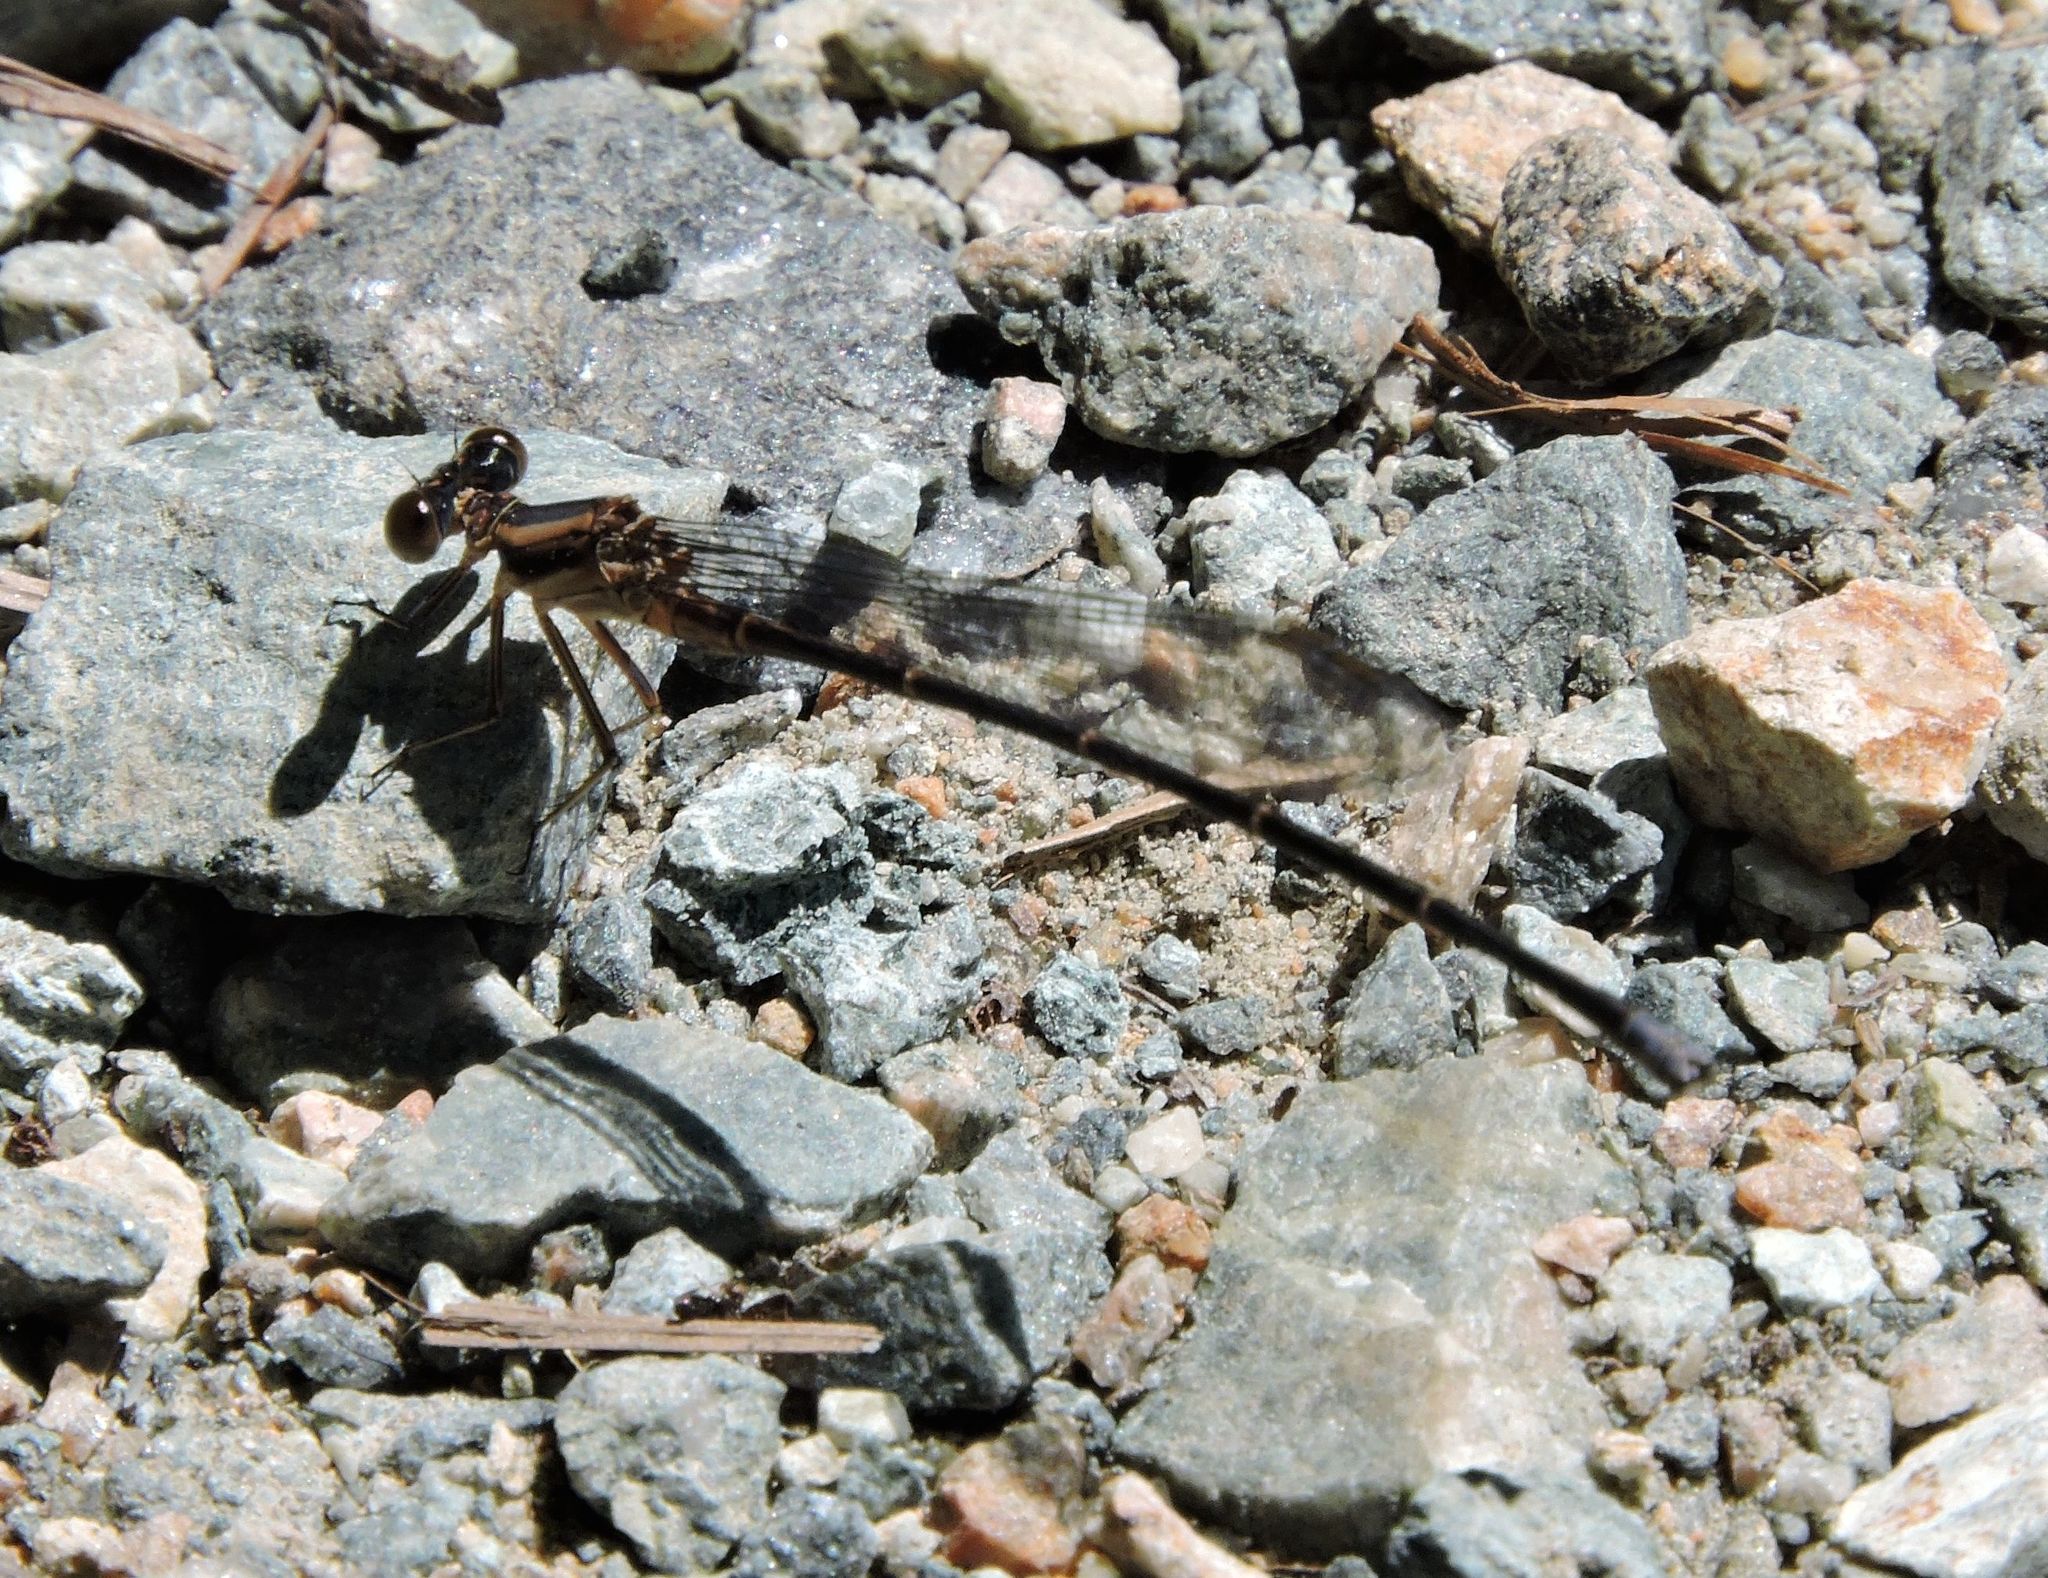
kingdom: Animalia
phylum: Arthropoda
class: Insecta
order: Odonata
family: Coenagrionidae
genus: Argia
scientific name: Argia tibialis
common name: Blue-tipped dancer
